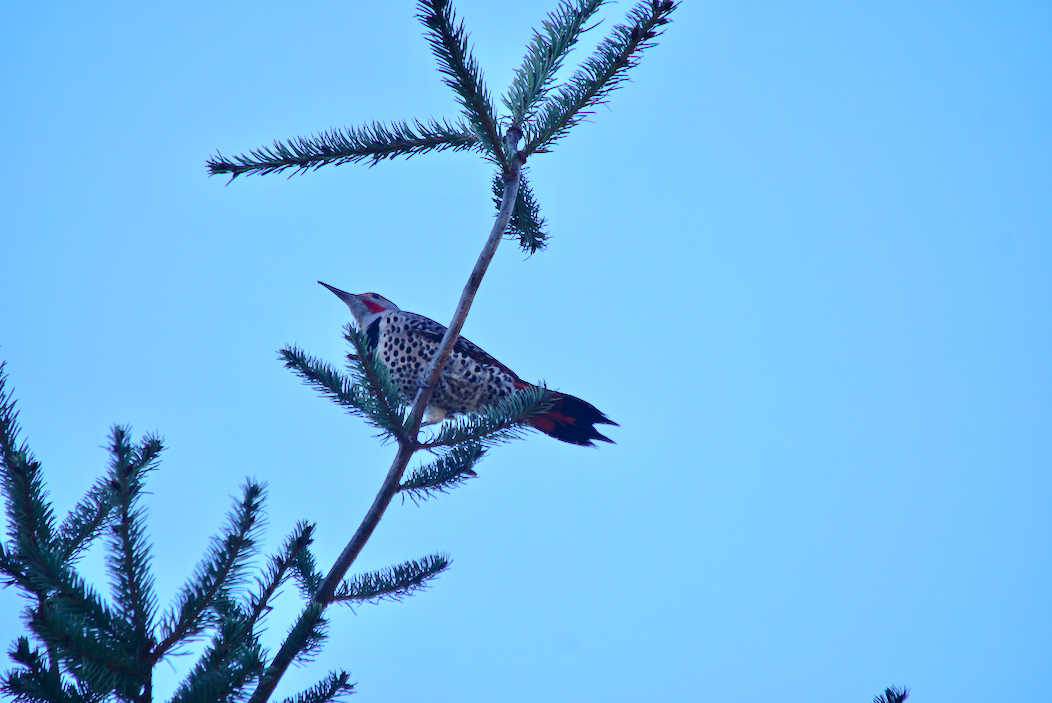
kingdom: Animalia
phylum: Chordata
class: Aves
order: Piciformes
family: Picidae
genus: Colaptes
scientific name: Colaptes auratus
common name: Northern flicker
